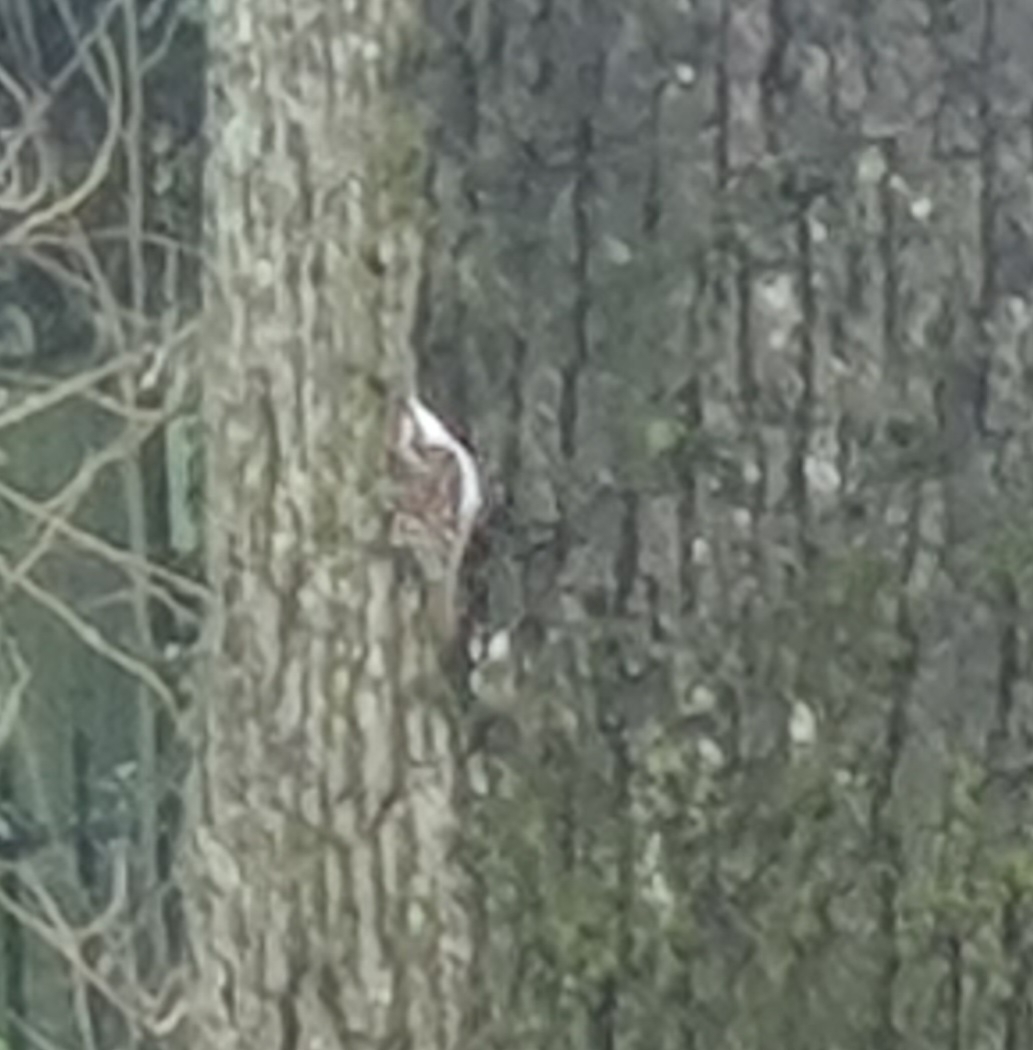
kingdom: Animalia
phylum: Chordata
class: Aves
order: Passeriformes
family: Certhiidae
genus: Certhia
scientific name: Certhia familiaris
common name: Eurasian treecreeper
